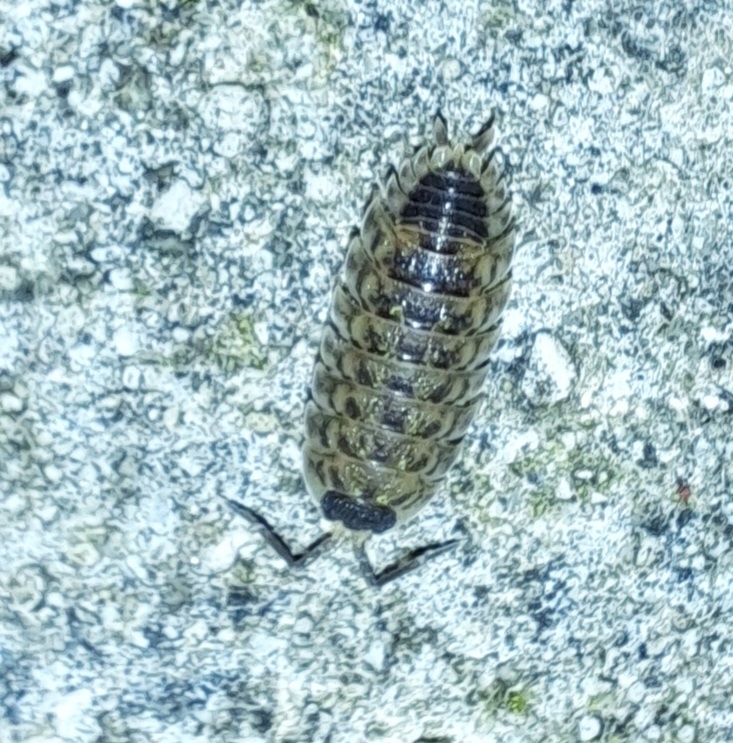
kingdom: Animalia
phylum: Arthropoda
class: Malacostraca
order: Isopoda
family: Porcellionidae
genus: Porcellio
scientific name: Porcellio spinicornis
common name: Painted woodlouse
